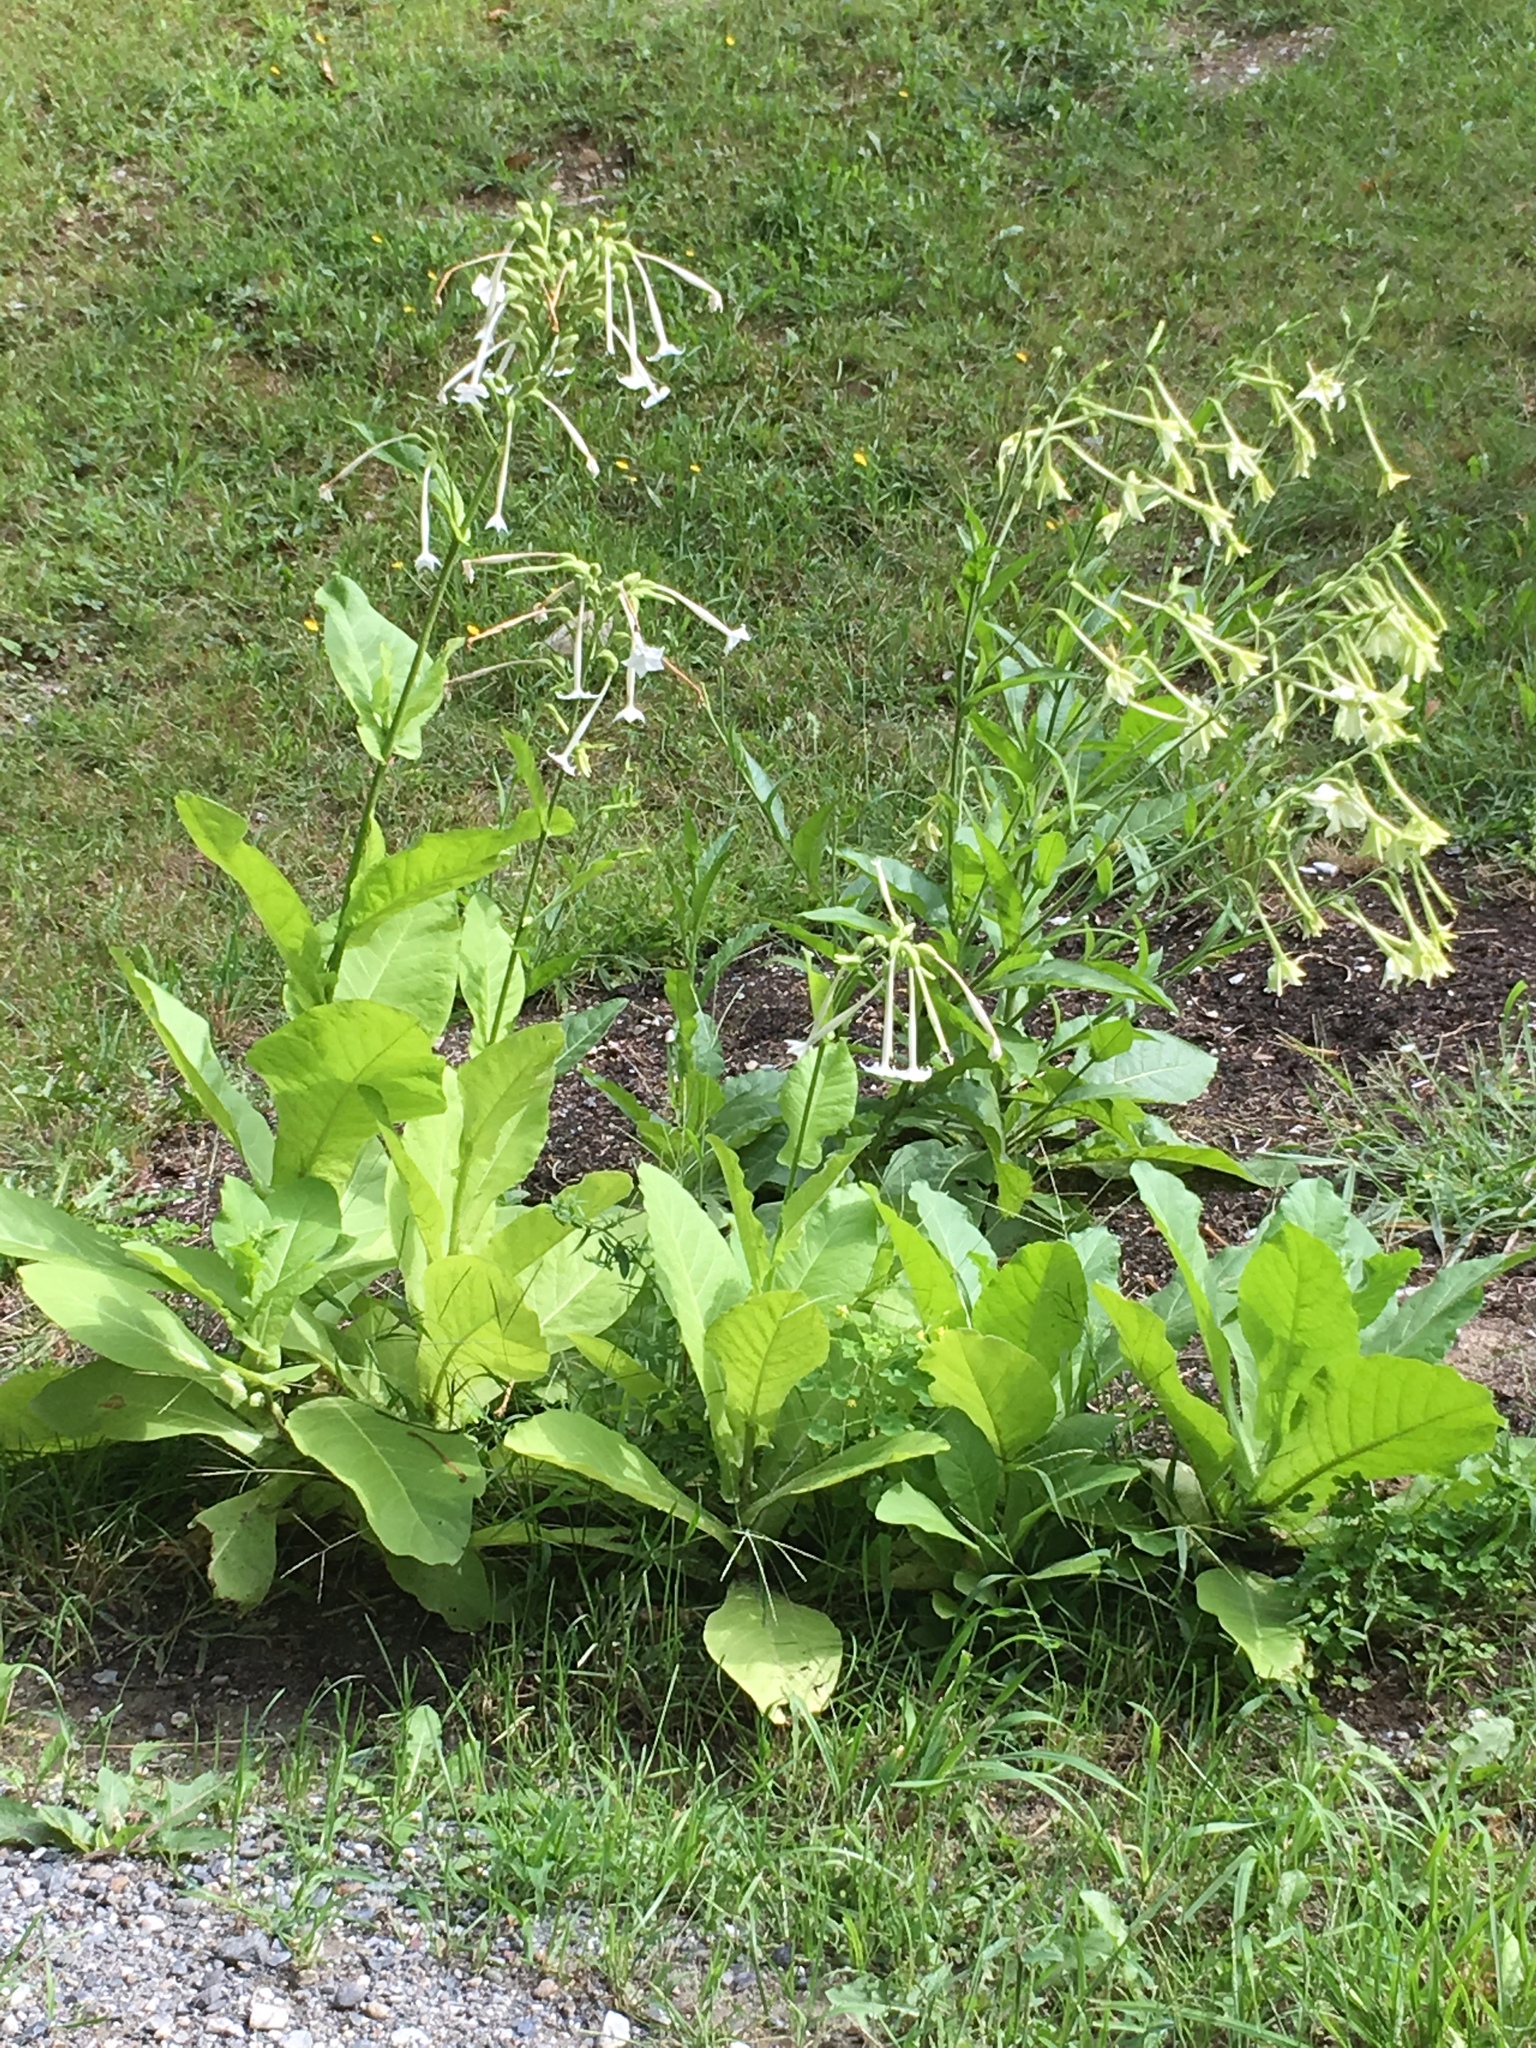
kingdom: Plantae
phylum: Tracheophyta
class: Magnoliopsida
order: Solanales
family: Solanaceae
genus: Nicotiana
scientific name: Nicotiana sylvestris
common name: Flowering tobacco
